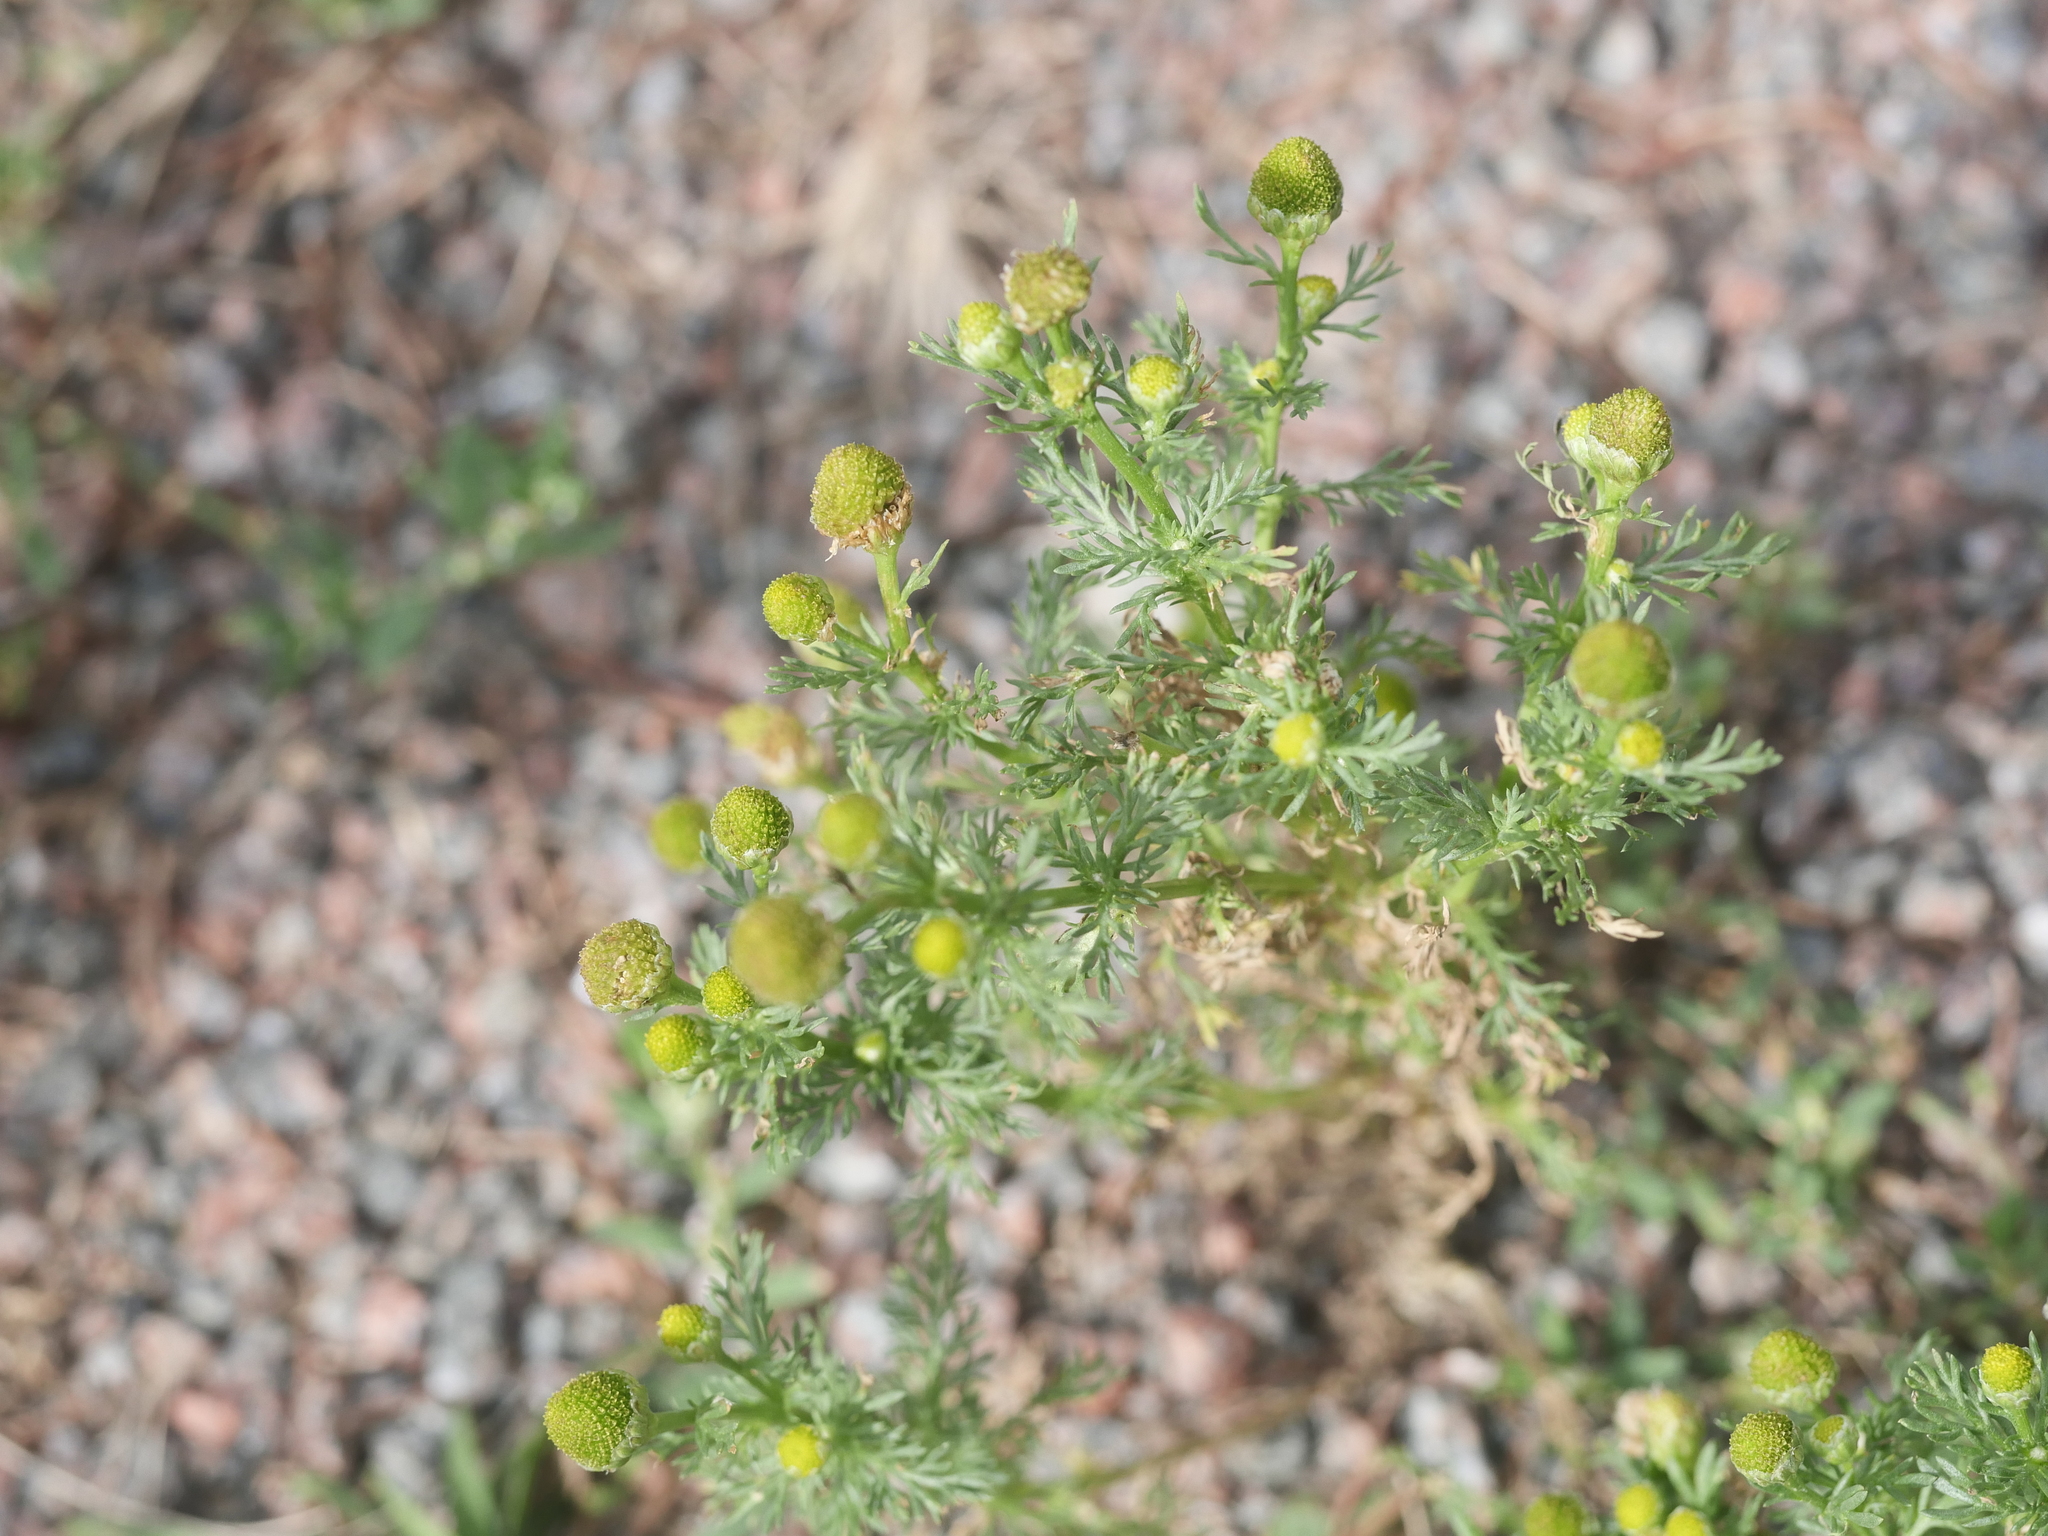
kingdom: Plantae
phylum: Tracheophyta
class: Magnoliopsida
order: Asterales
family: Asteraceae
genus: Matricaria
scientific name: Matricaria discoidea
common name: Disc mayweed
